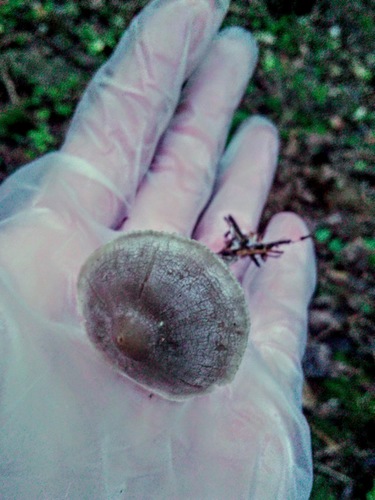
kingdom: Fungi
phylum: Basidiomycota
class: Agaricomycetes
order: Agaricales
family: Mycenaceae
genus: Mycena
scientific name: Mycena
